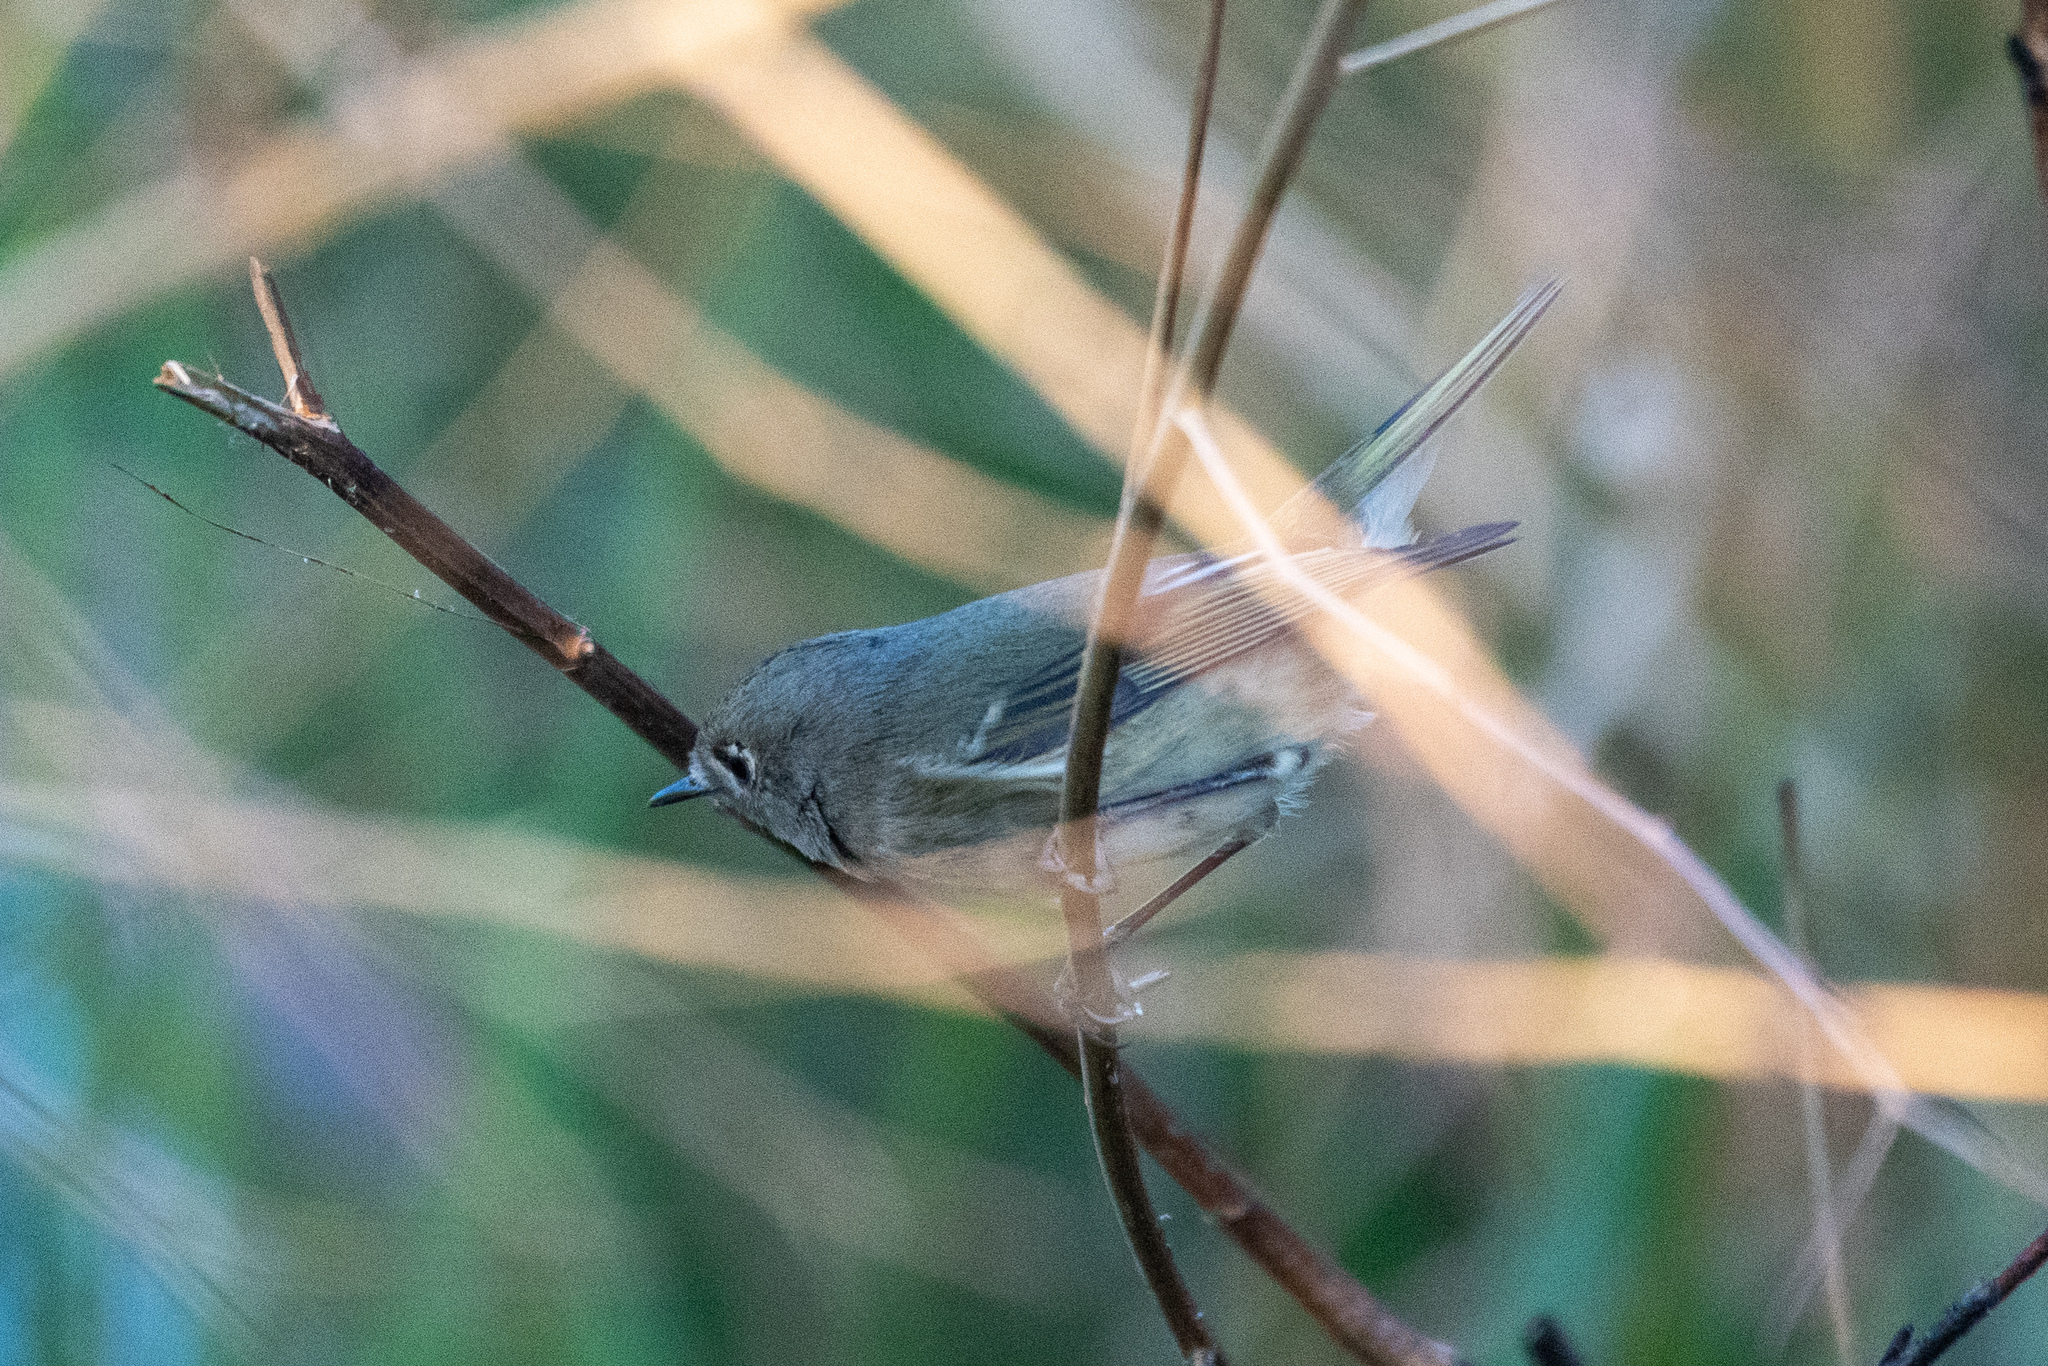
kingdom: Animalia
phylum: Chordata
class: Aves
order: Passeriformes
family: Regulidae
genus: Regulus
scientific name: Regulus calendula
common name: Ruby-crowned kinglet
